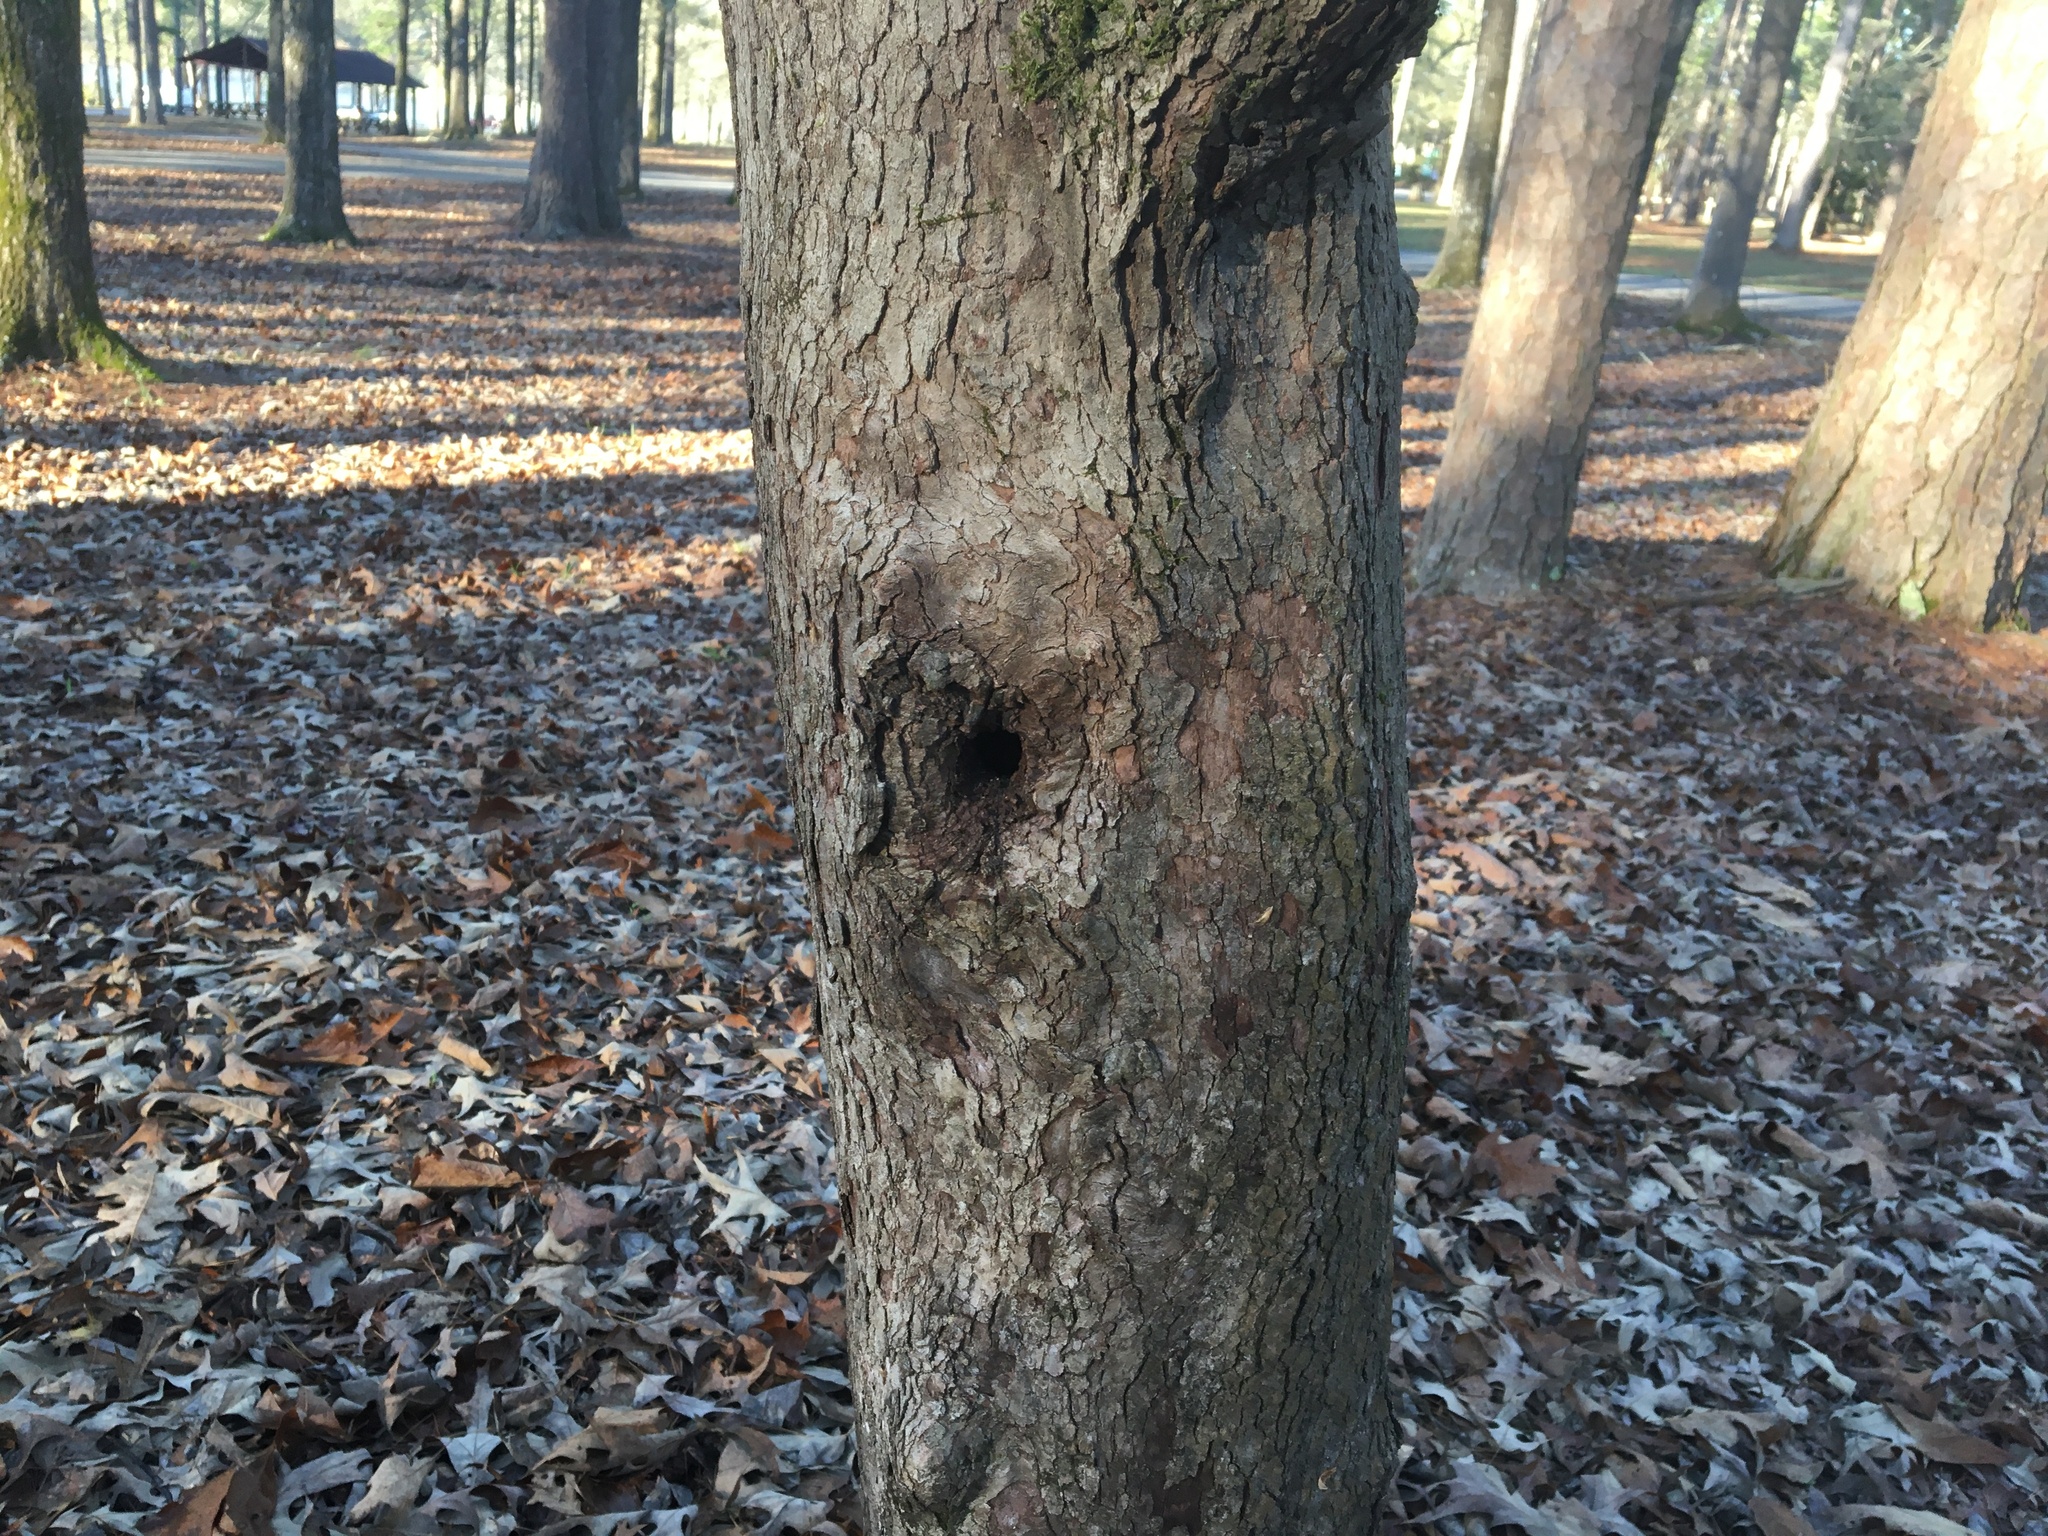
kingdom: Plantae
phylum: Tracheophyta
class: Magnoliopsida
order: Cornales
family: Cornaceae
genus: Cornus
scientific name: Cornus florida
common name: Flowering dogwood
